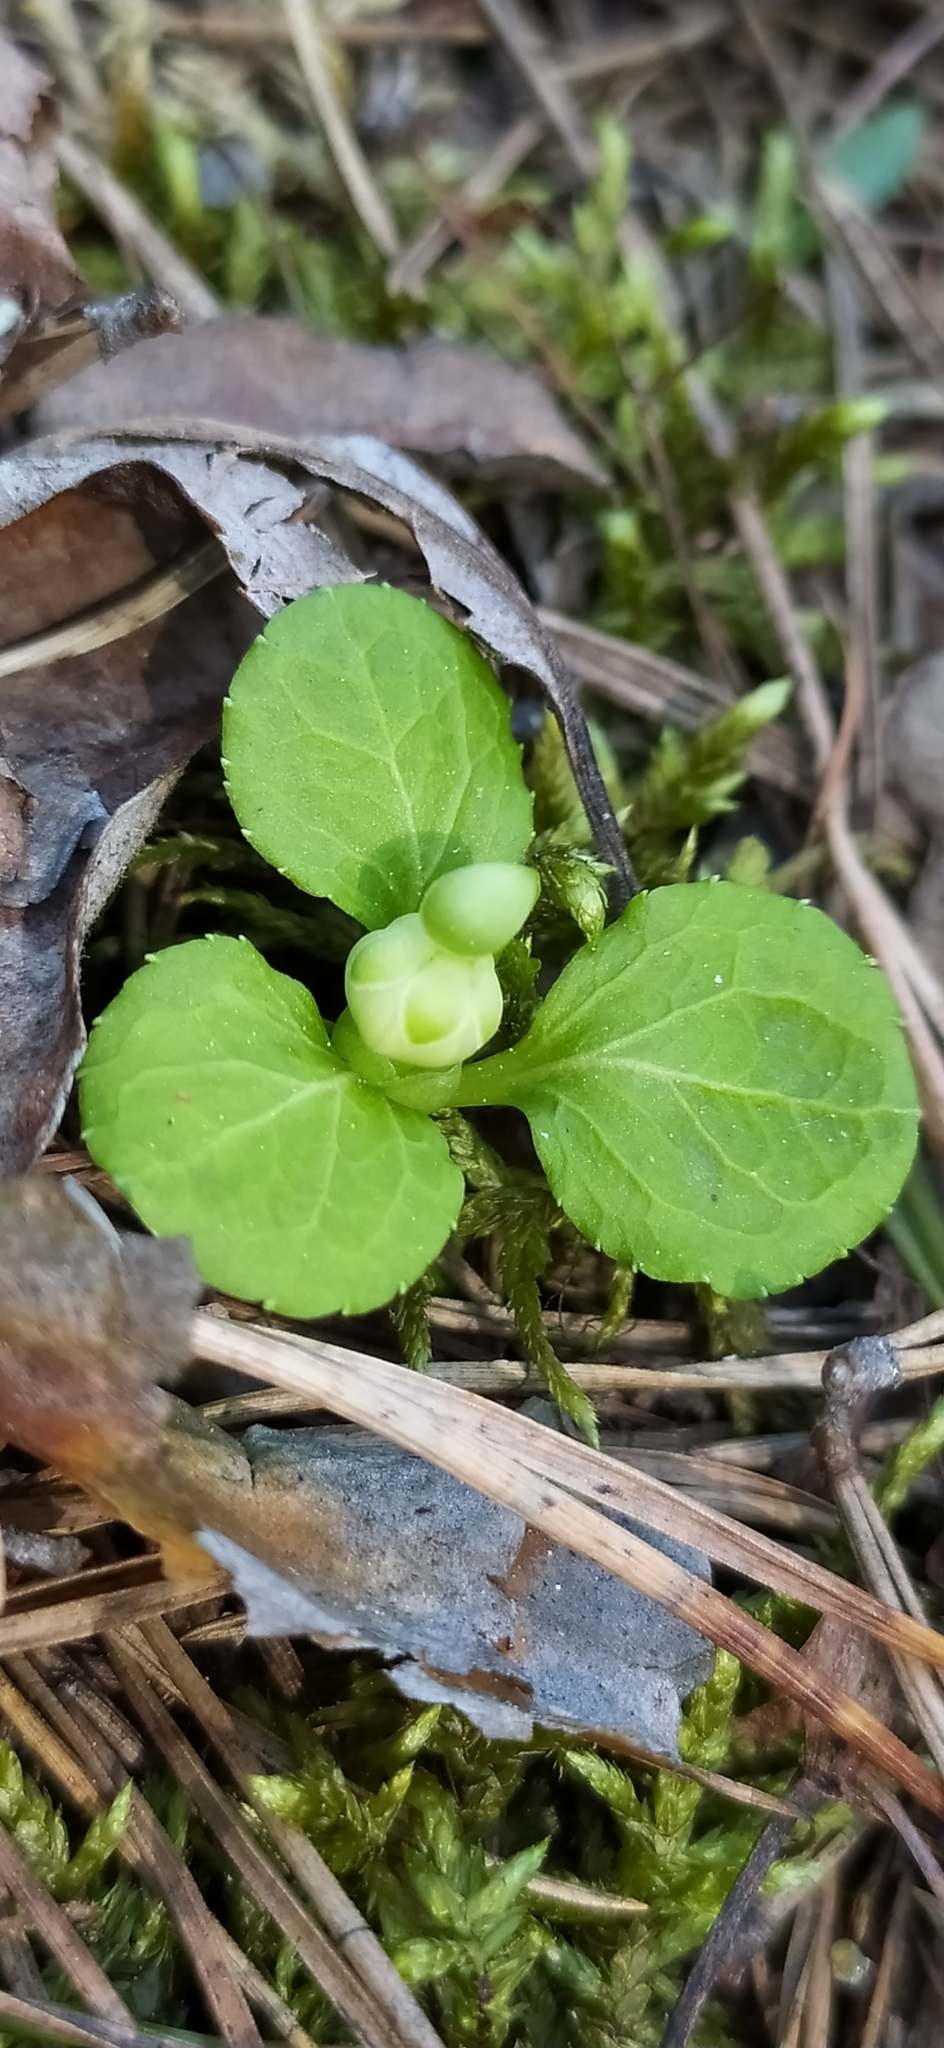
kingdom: Plantae
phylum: Tracheophyta
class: Magnoliopsida
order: Ericales
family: Ericaceae
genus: Moneses
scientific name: Moneses uniflora
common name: One-flowered wintergreen
